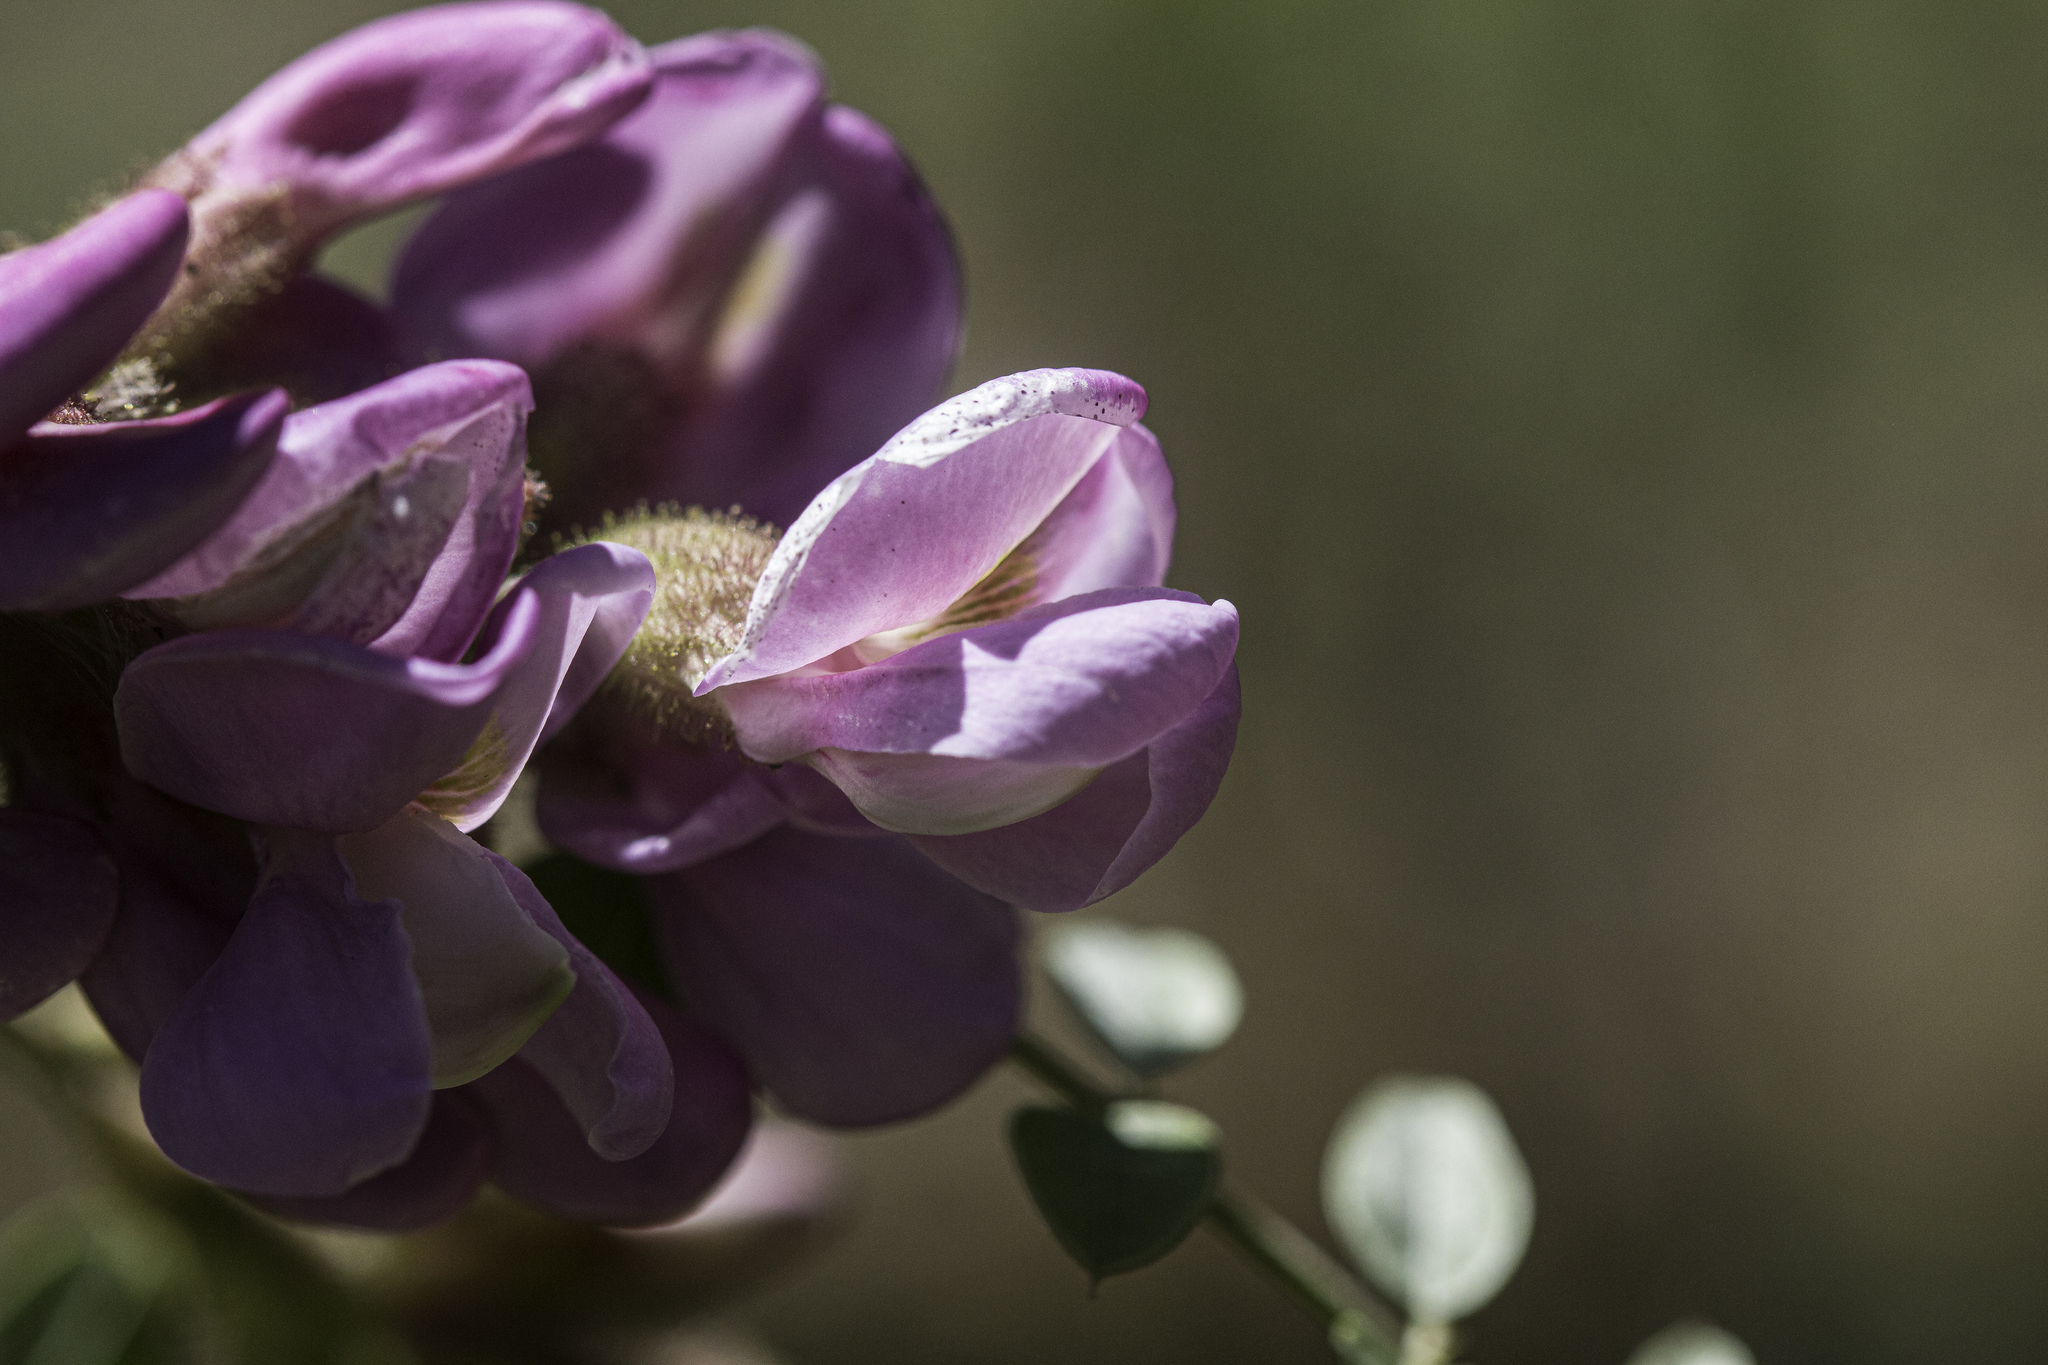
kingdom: Plantae
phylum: Tracheophyta
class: Magnoliopsida
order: Fabales
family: Fabaceae
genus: Robinia
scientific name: Robinia neomexicana
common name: New mexico locust
